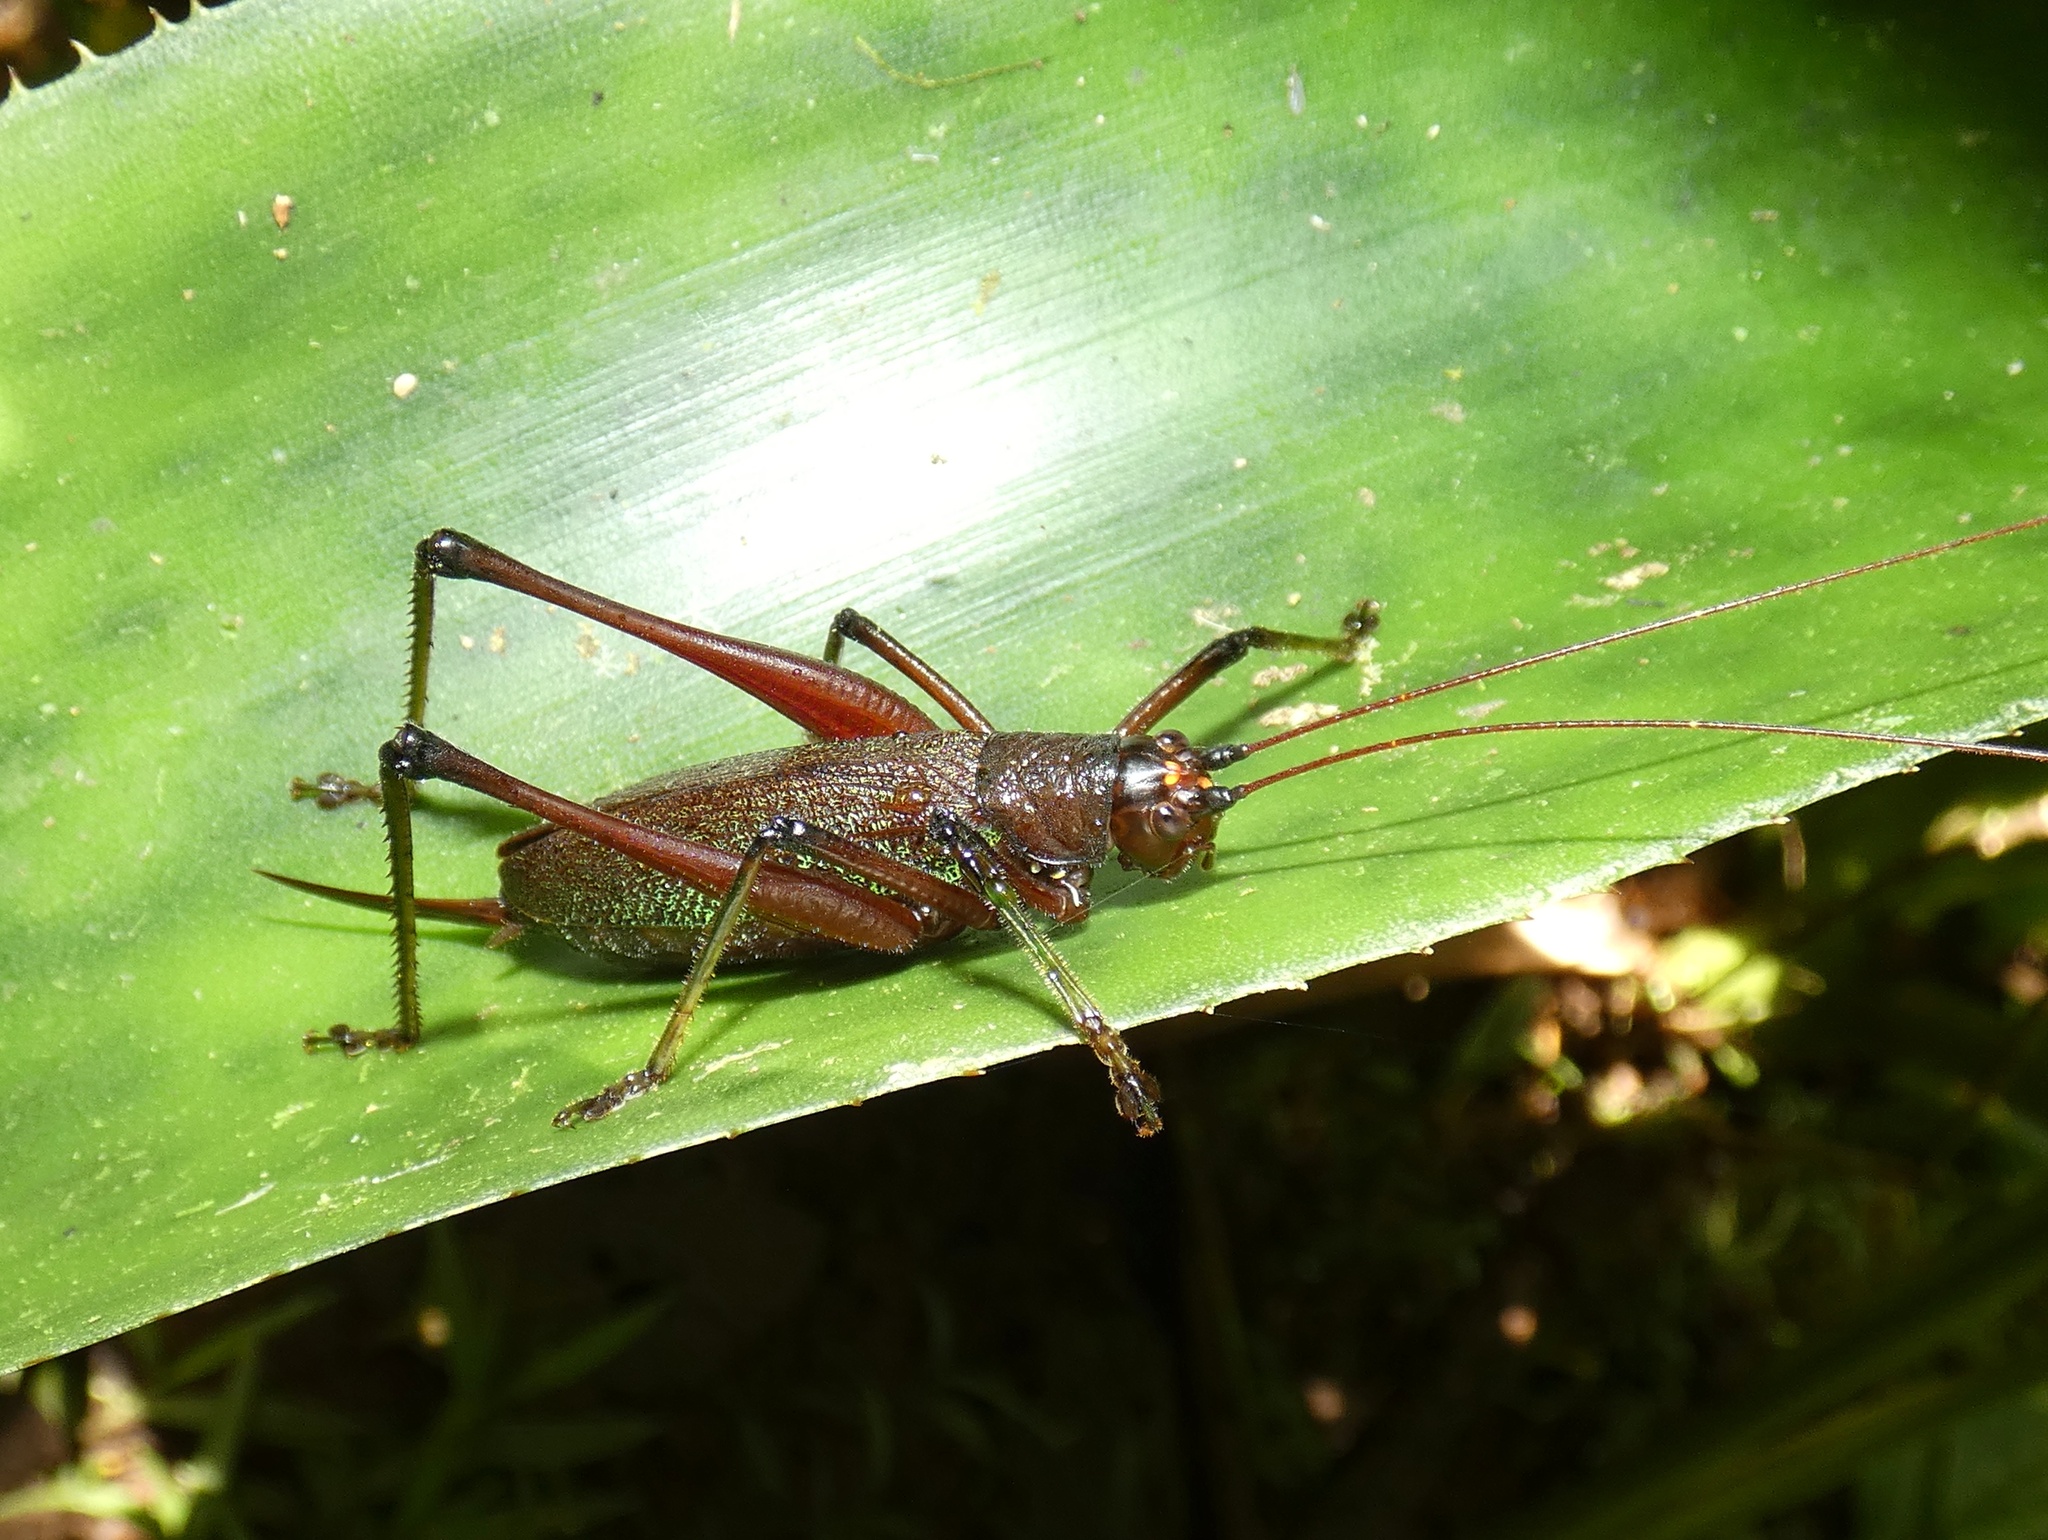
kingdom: Animalia
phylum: Arthropoda
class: Insecta
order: Orthoptera
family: Tettigoniidae
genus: Goethalsiella
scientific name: Goethalsiella tridens
